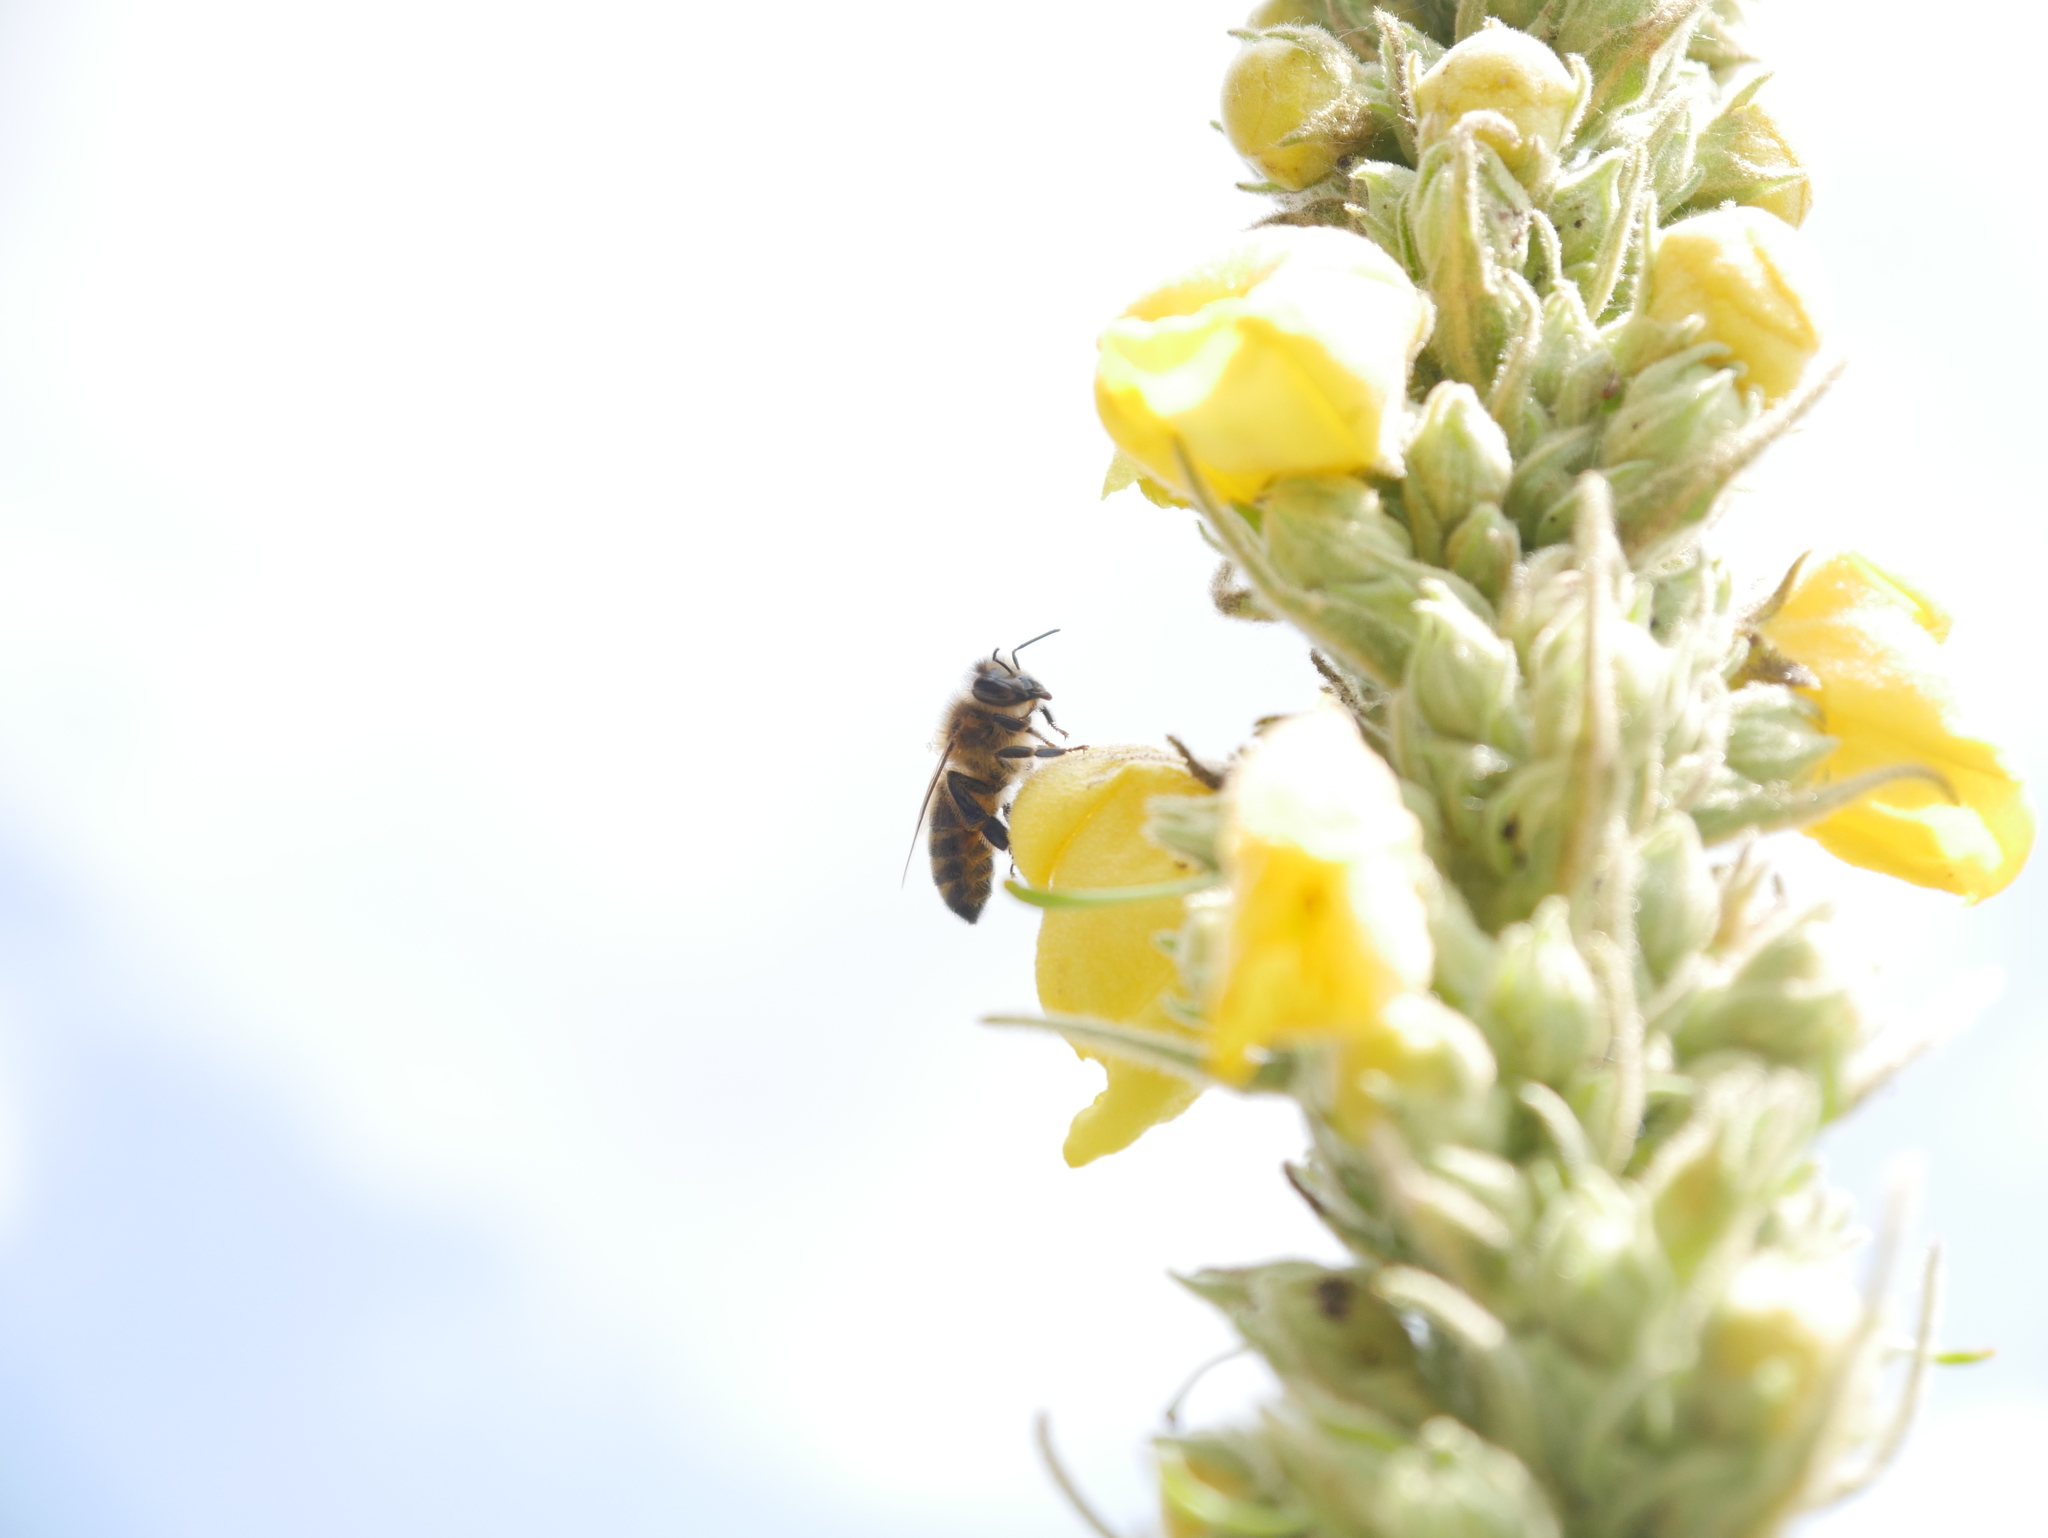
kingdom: Animalia
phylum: Arthropoda
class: Insecta
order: Hymenoptera
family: Apidae
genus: Apis
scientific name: Apis mellifera
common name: Honey bee
